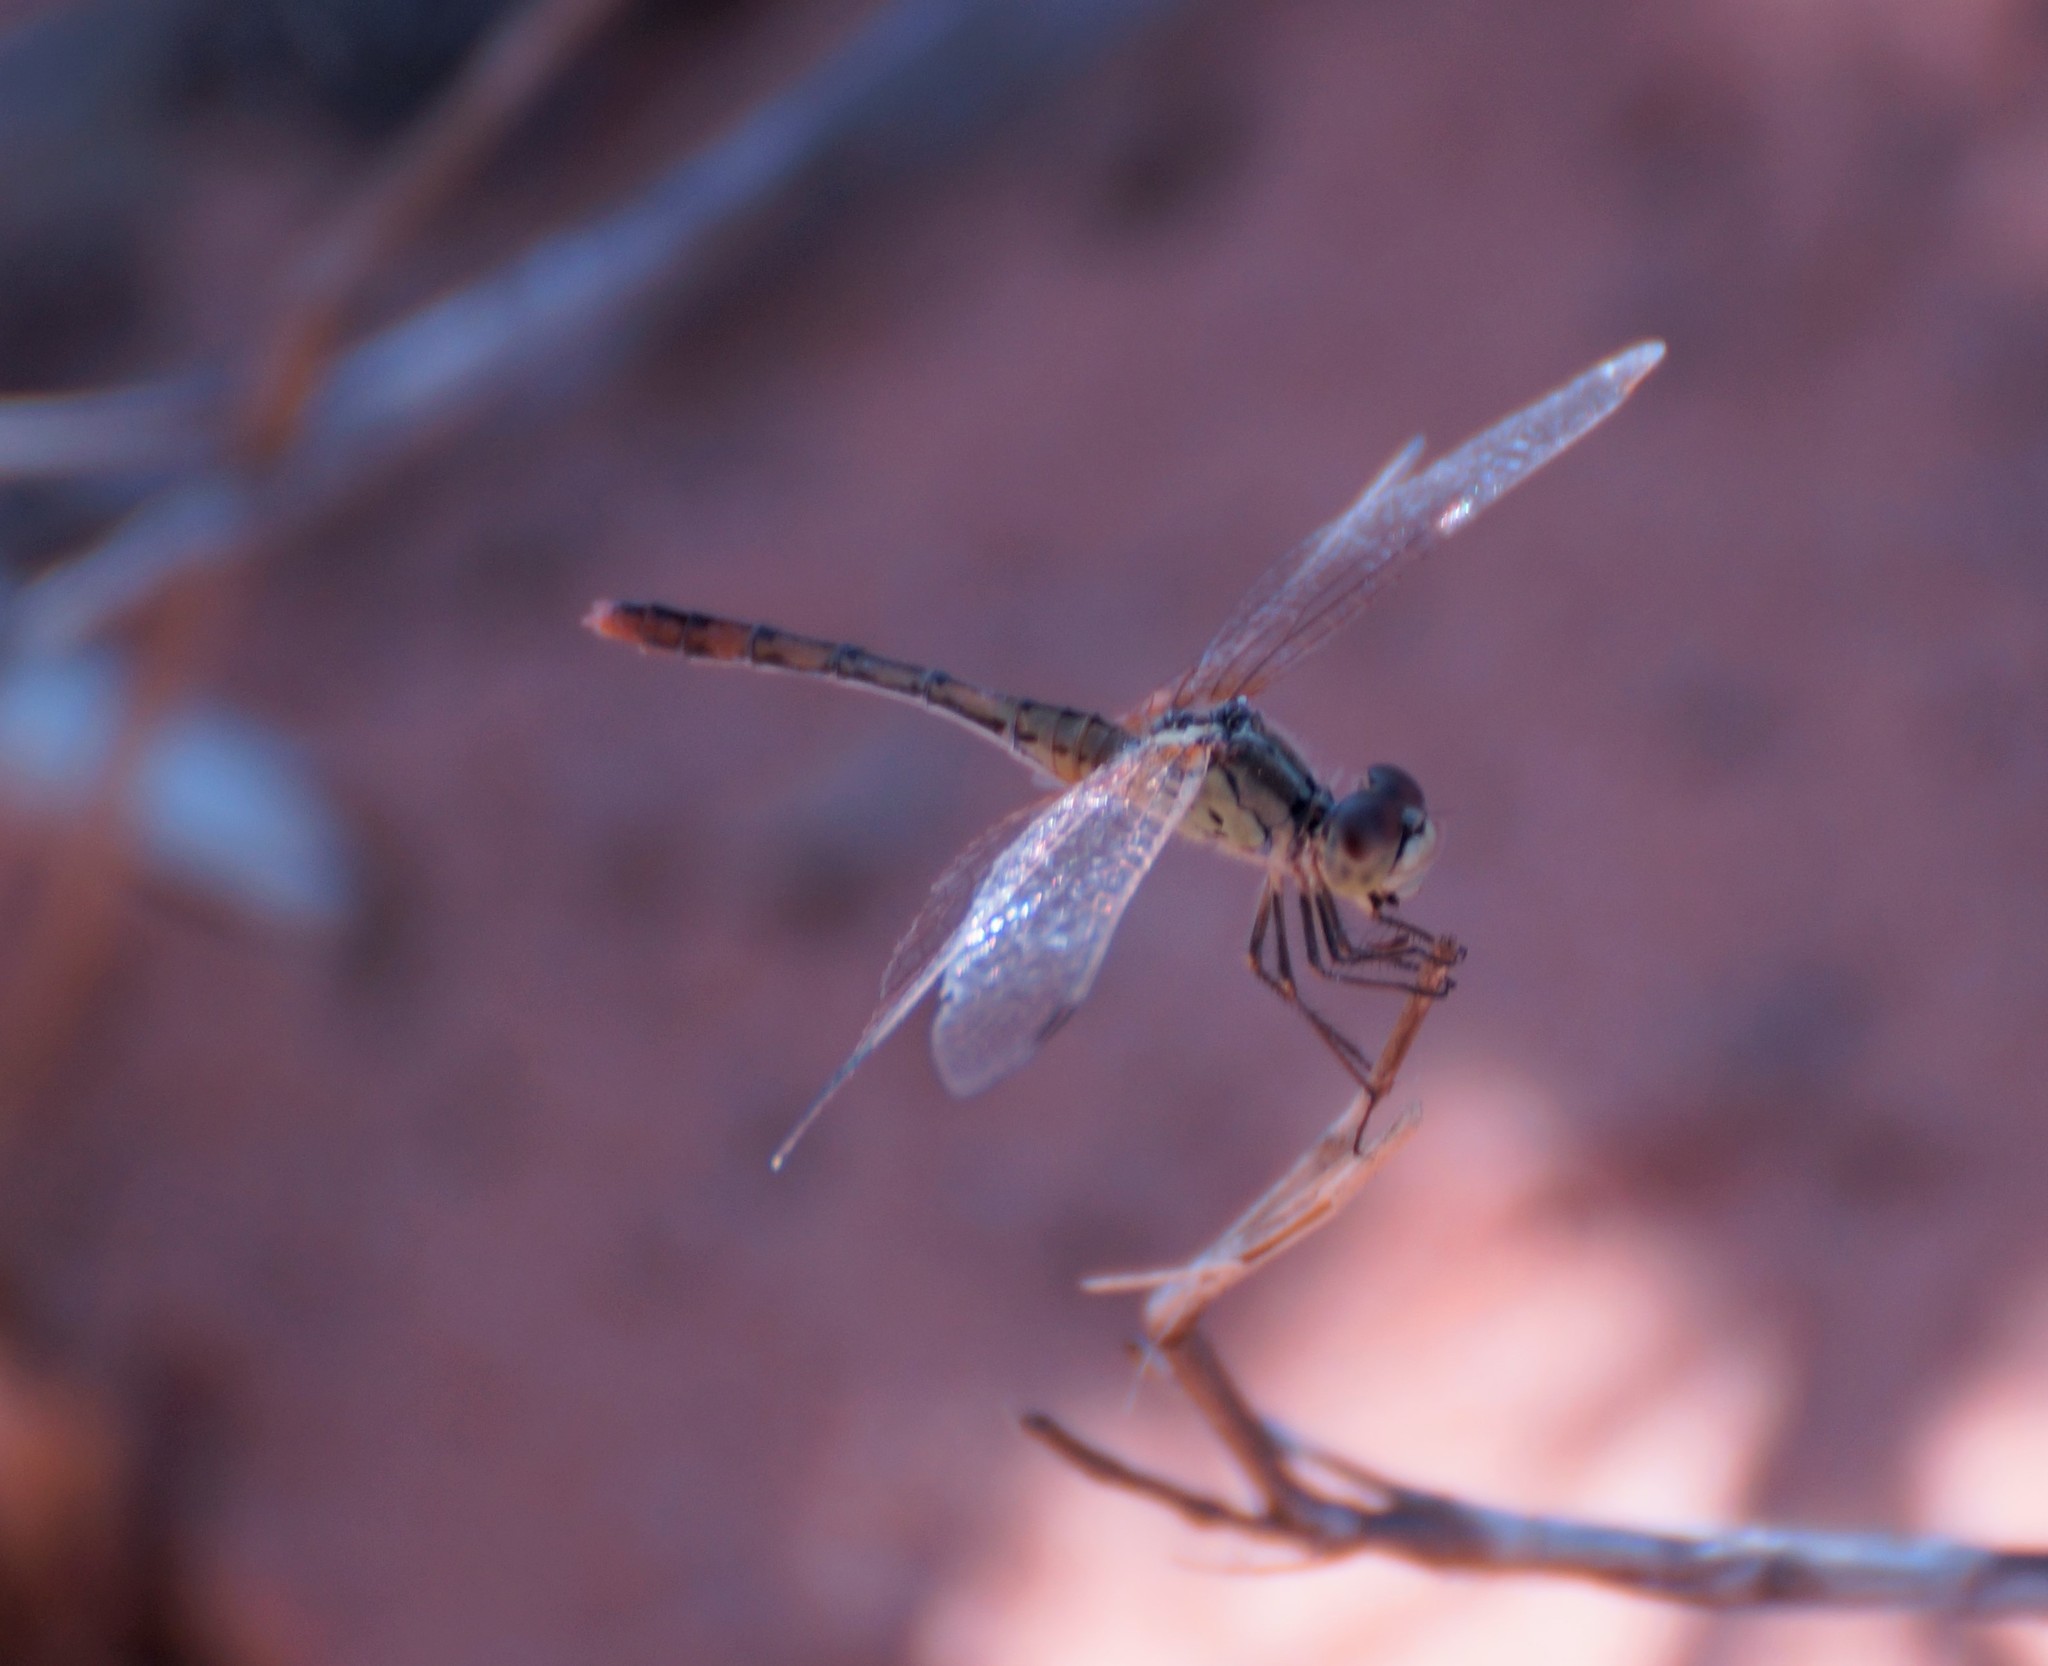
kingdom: Animalia
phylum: Arthropoda
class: Insecta
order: Odonata
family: Libellulidae
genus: Diplacodes
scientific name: Diplacodes bipunctata
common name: Red percher dragonfly
